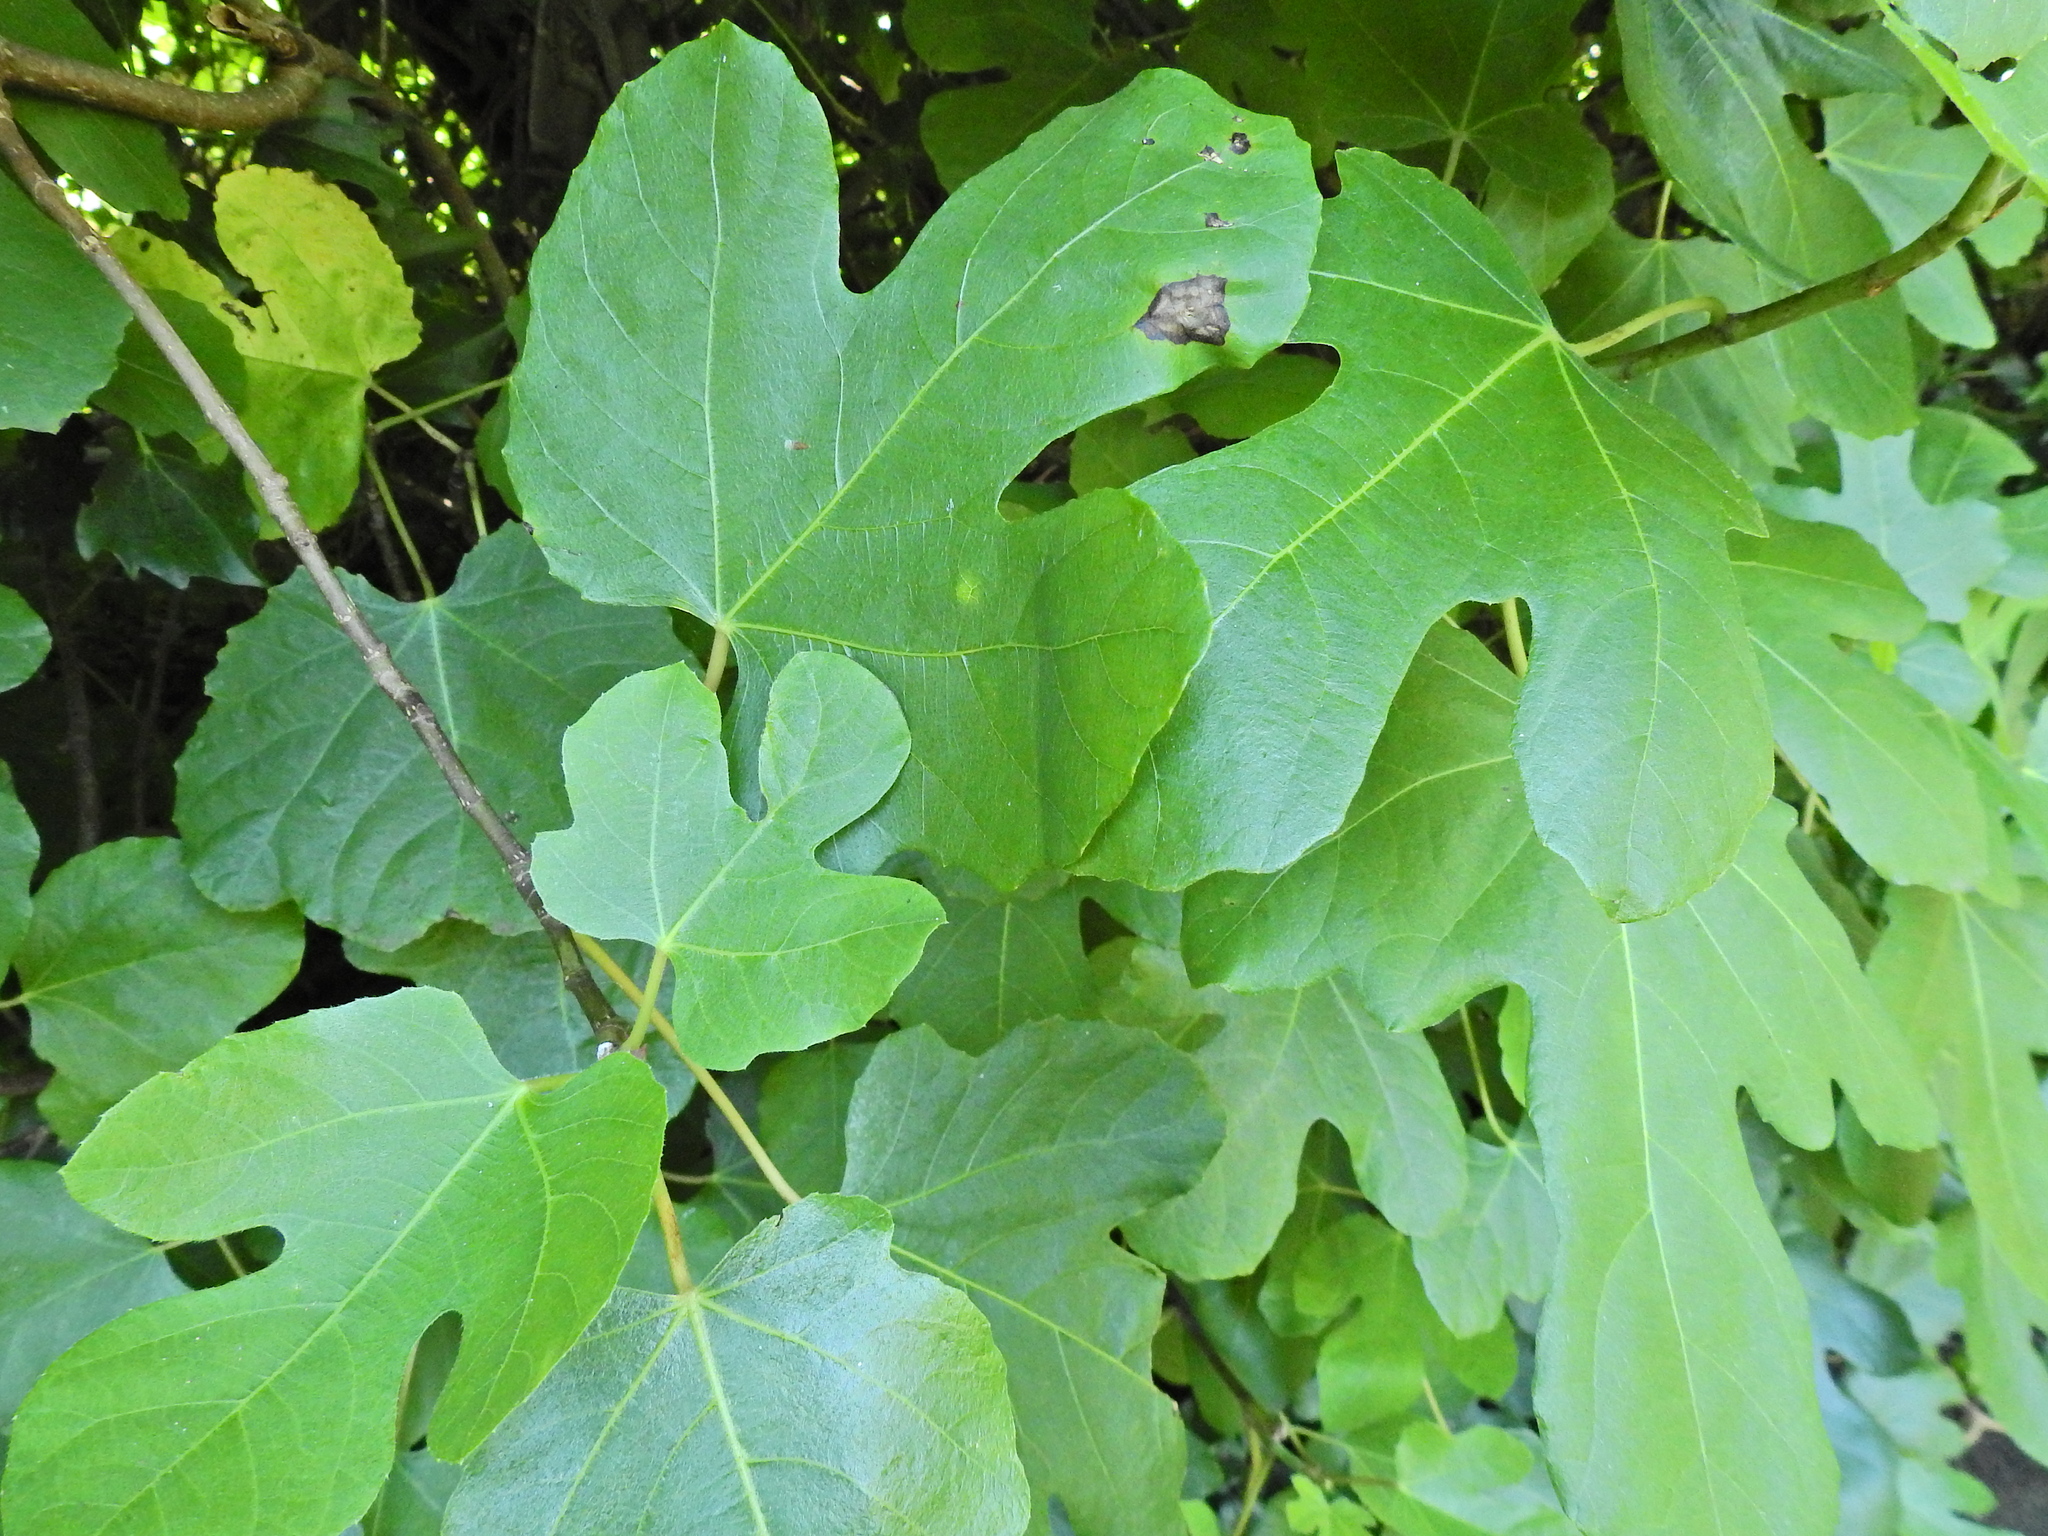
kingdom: Plantae
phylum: Tracheophyta
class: Magnoliopsida
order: Rosales
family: Moraceae
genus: Ficus
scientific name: Ficus carica
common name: Fig
